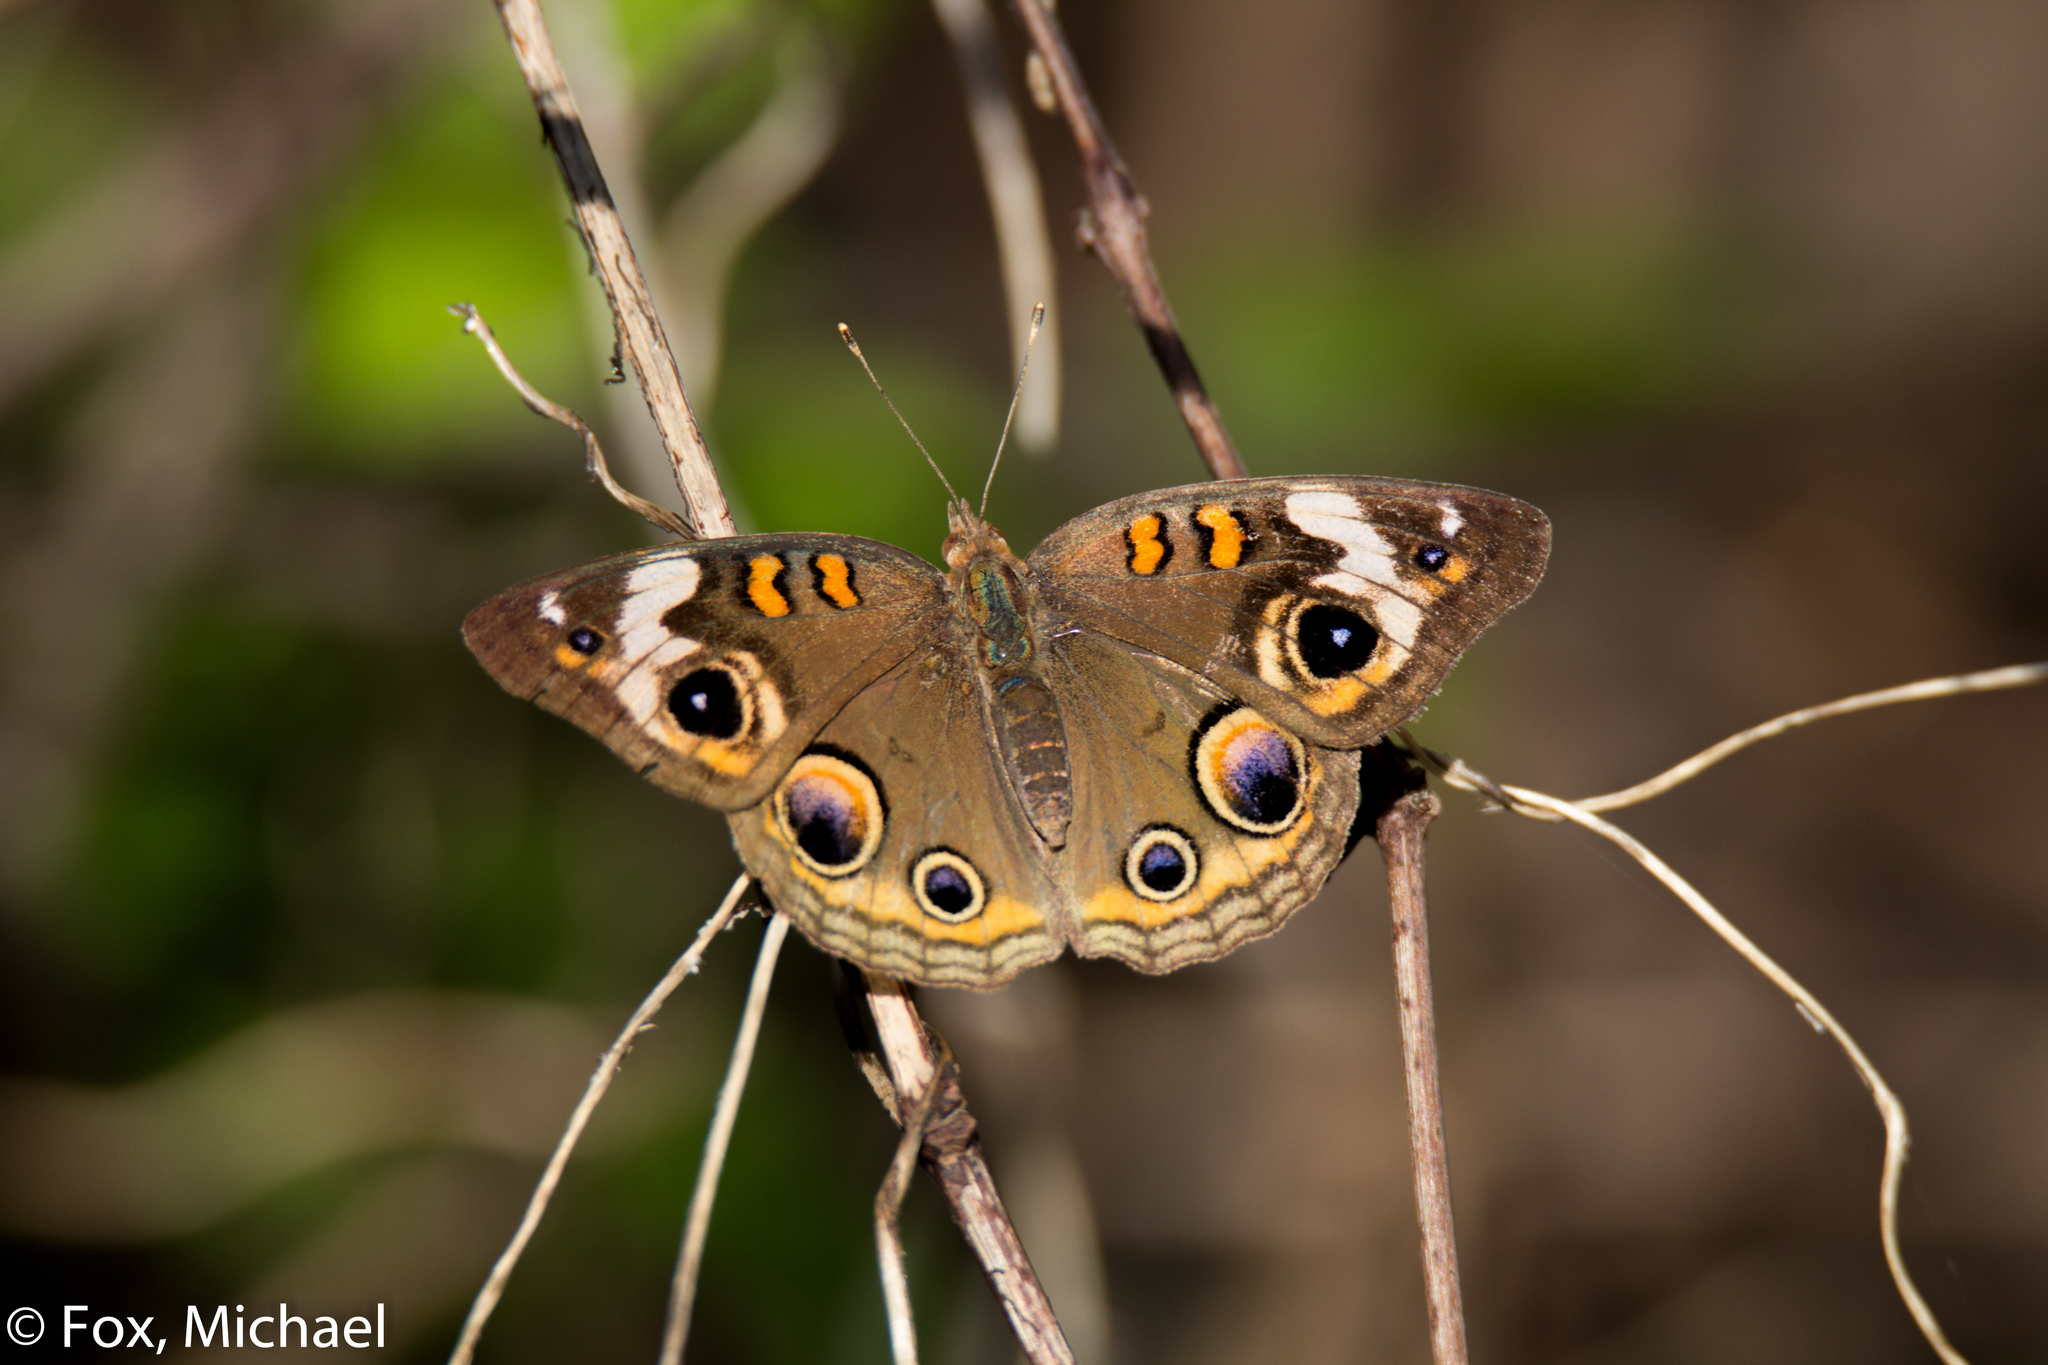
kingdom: Animalia
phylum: Arthropoda
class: Insecta
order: Lepidoptera
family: Nymphalidae
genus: Junonia
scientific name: Junonia coenia
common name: Common buckeye
